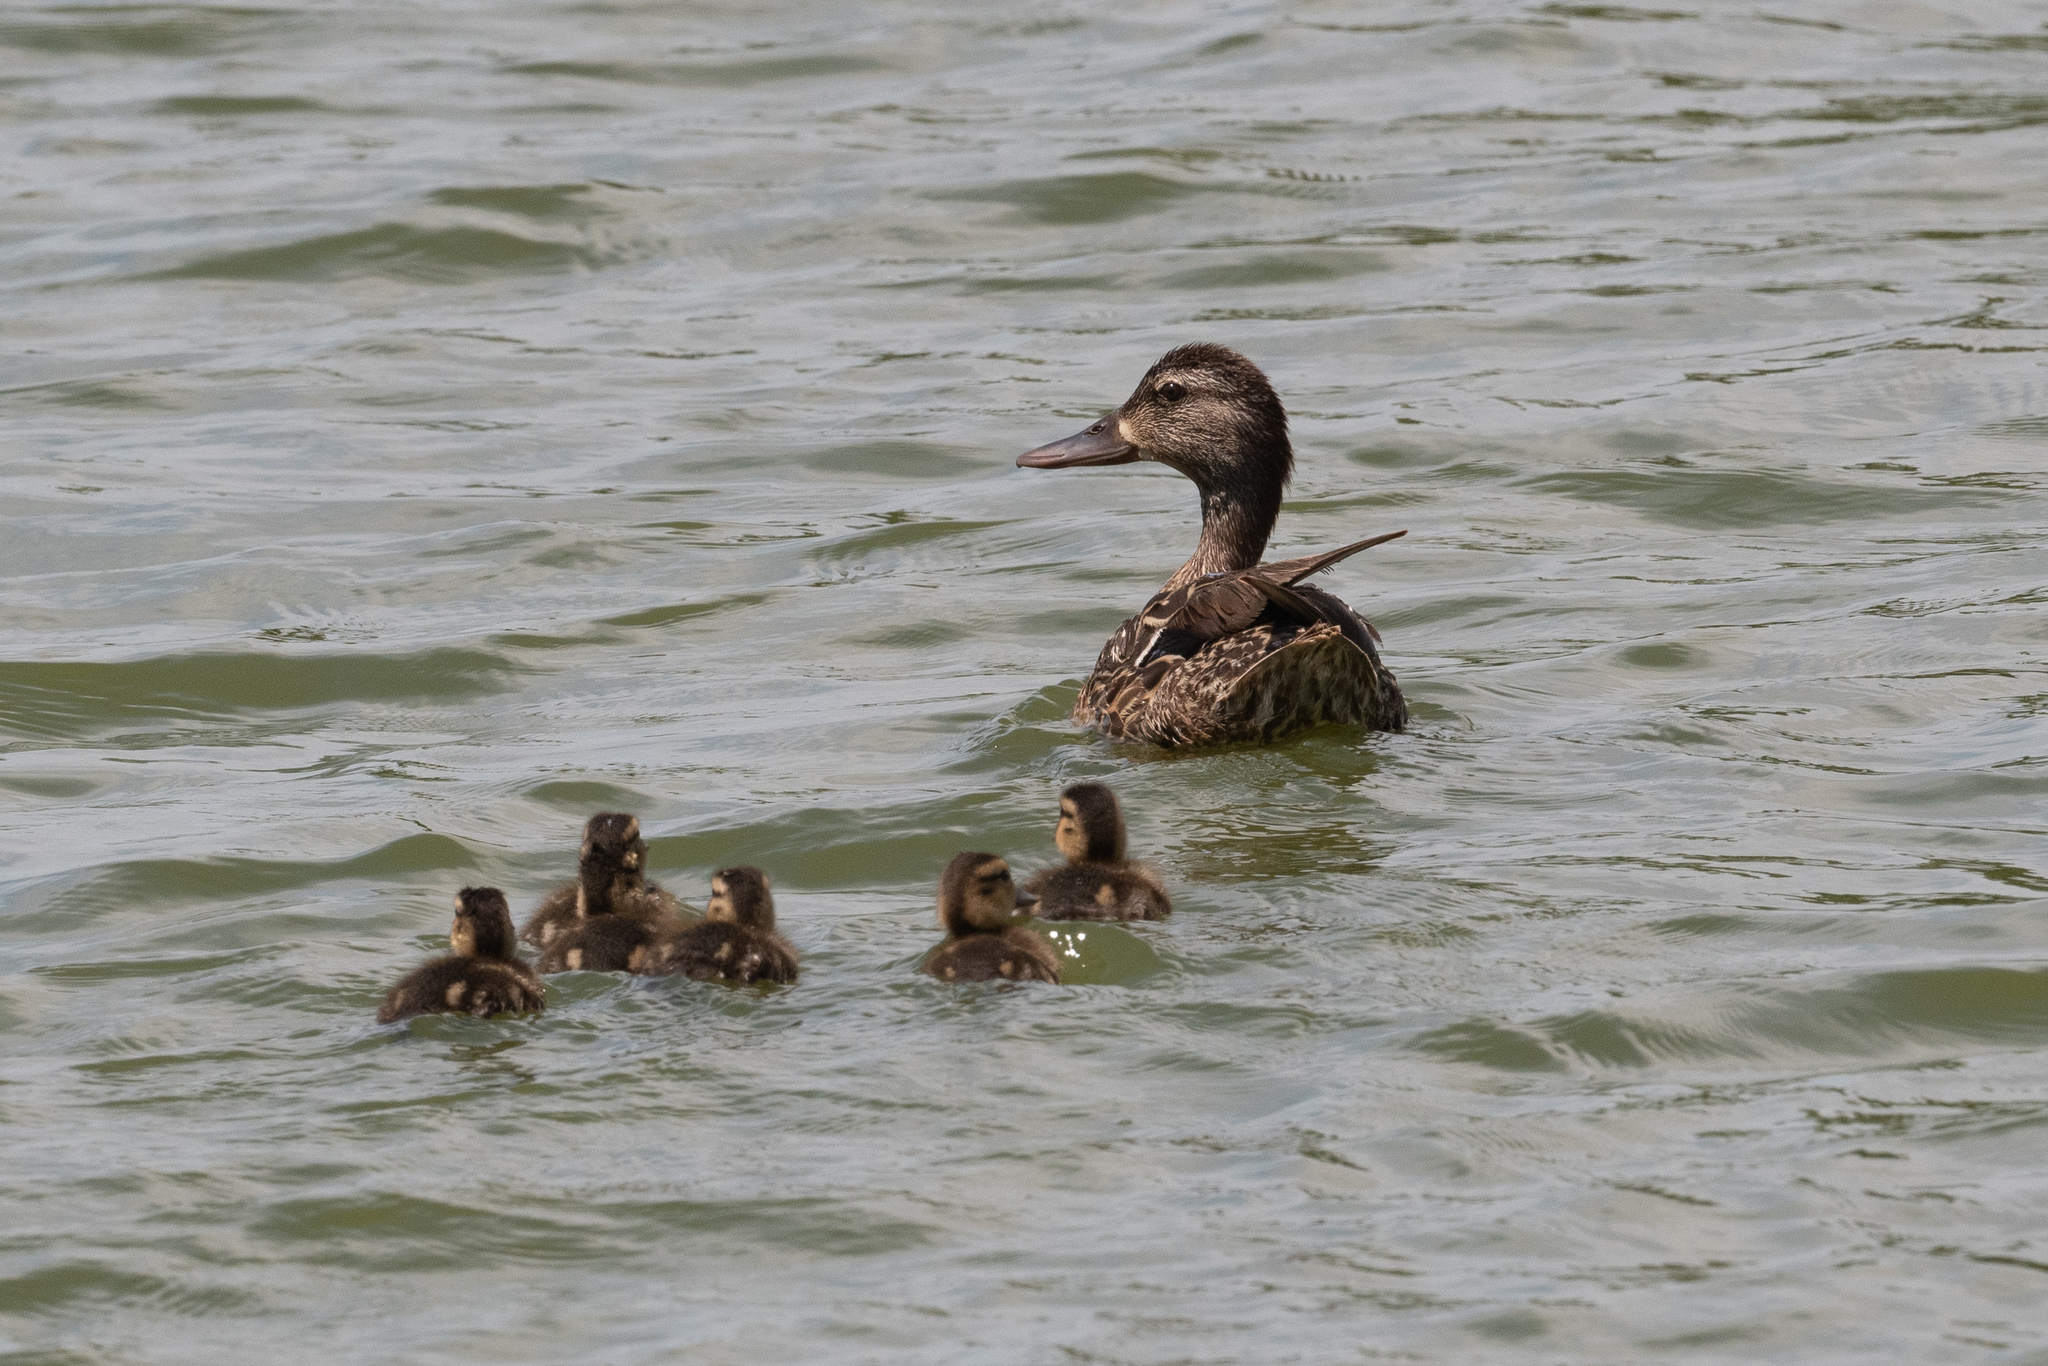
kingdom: Animalia
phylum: Chordata
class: Aves
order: Anseriformes
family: Anatidae
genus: Anas
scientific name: Anas platyrhynchos
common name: Mallard
